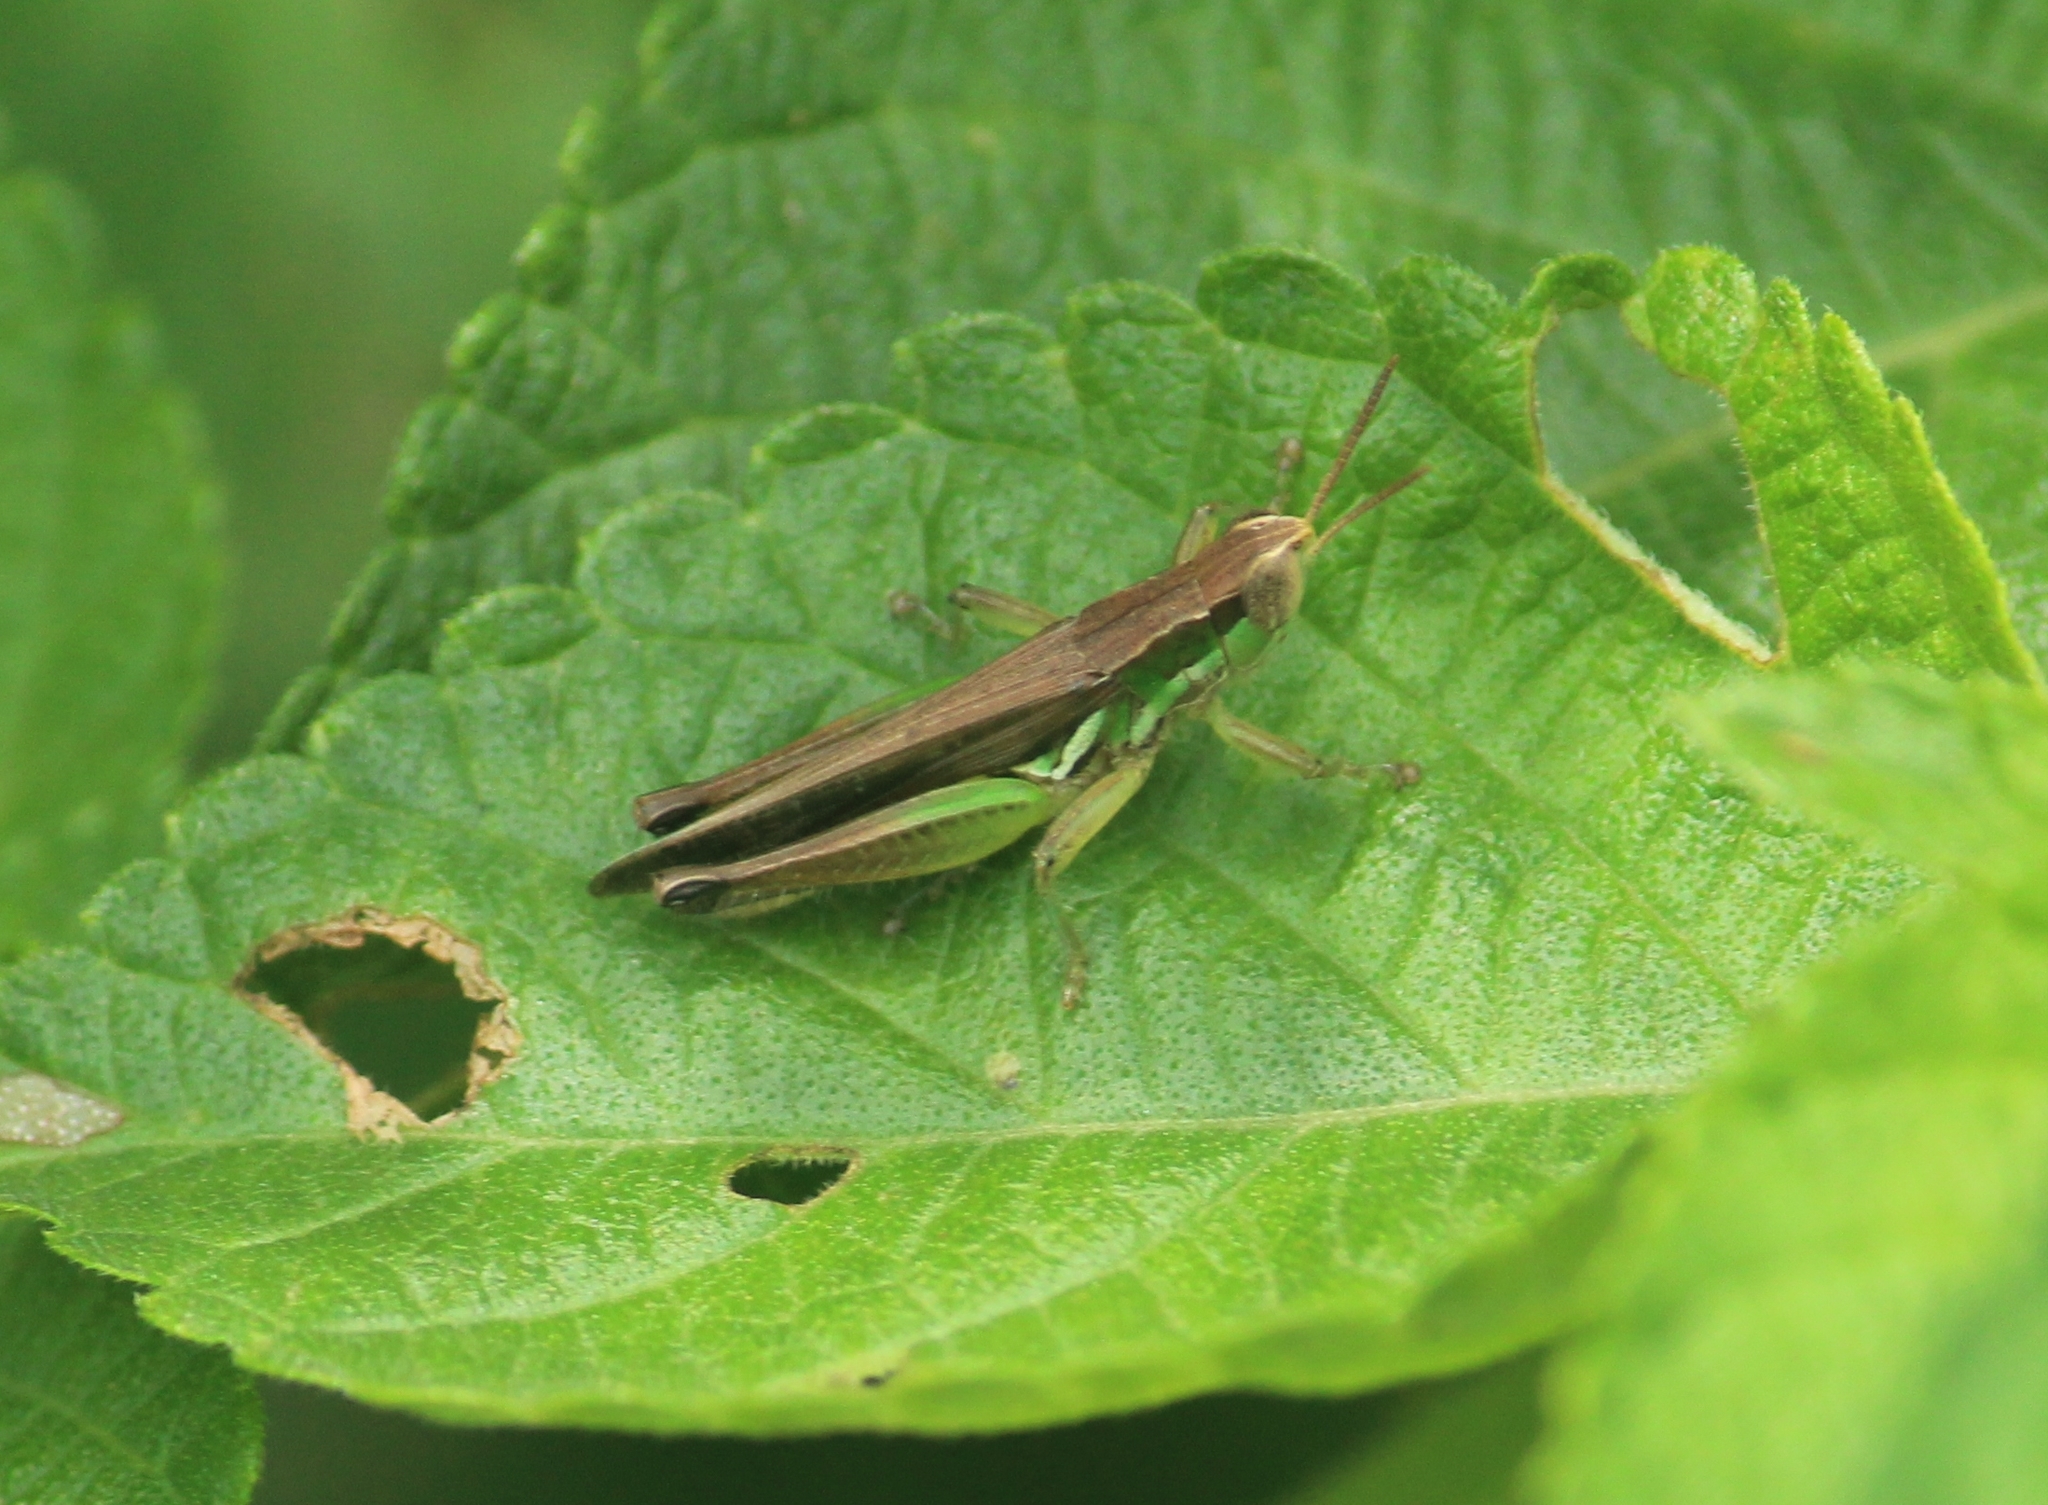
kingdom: Animalia
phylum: Arthropoda
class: Insecta
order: Orthoptera
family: Acrididae
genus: Spathosternum
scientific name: Spathosternum prasiniferum
